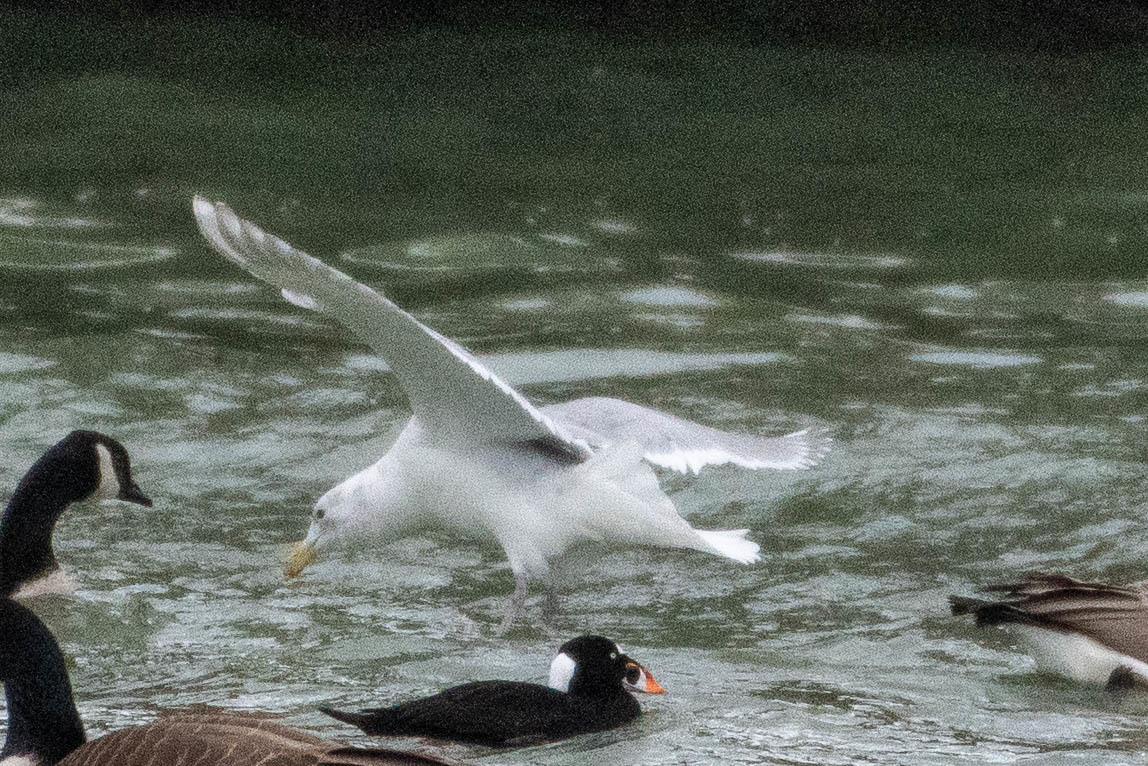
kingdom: Animalia
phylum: Chordata
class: Aves
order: Charadriiformes
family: Laridae
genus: Larus
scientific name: Larus glaucescens
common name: Glaucous-winged gull
